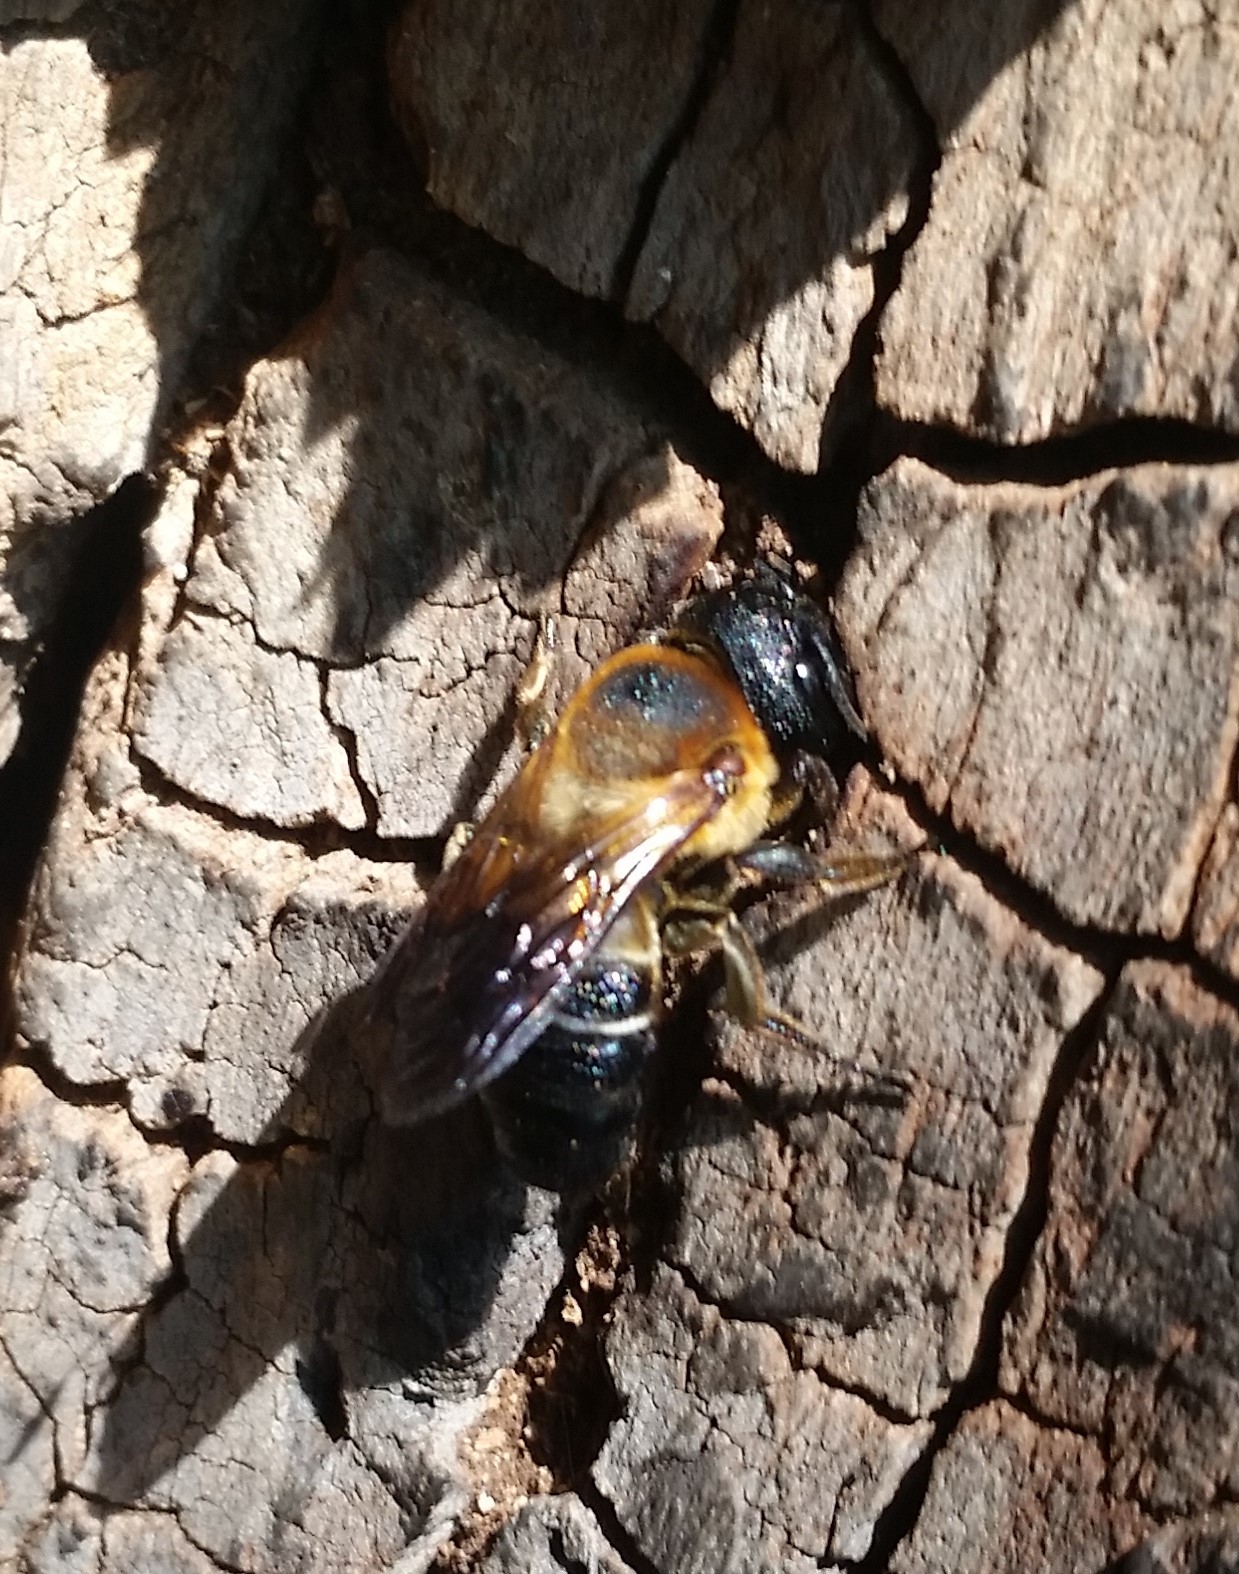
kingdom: Animalia
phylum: Arthropoda
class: Insecta
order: Hymenoptera
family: Megachilidae
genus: Megachile
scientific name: Megachile sculpturalis
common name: Sculptured resin bee
